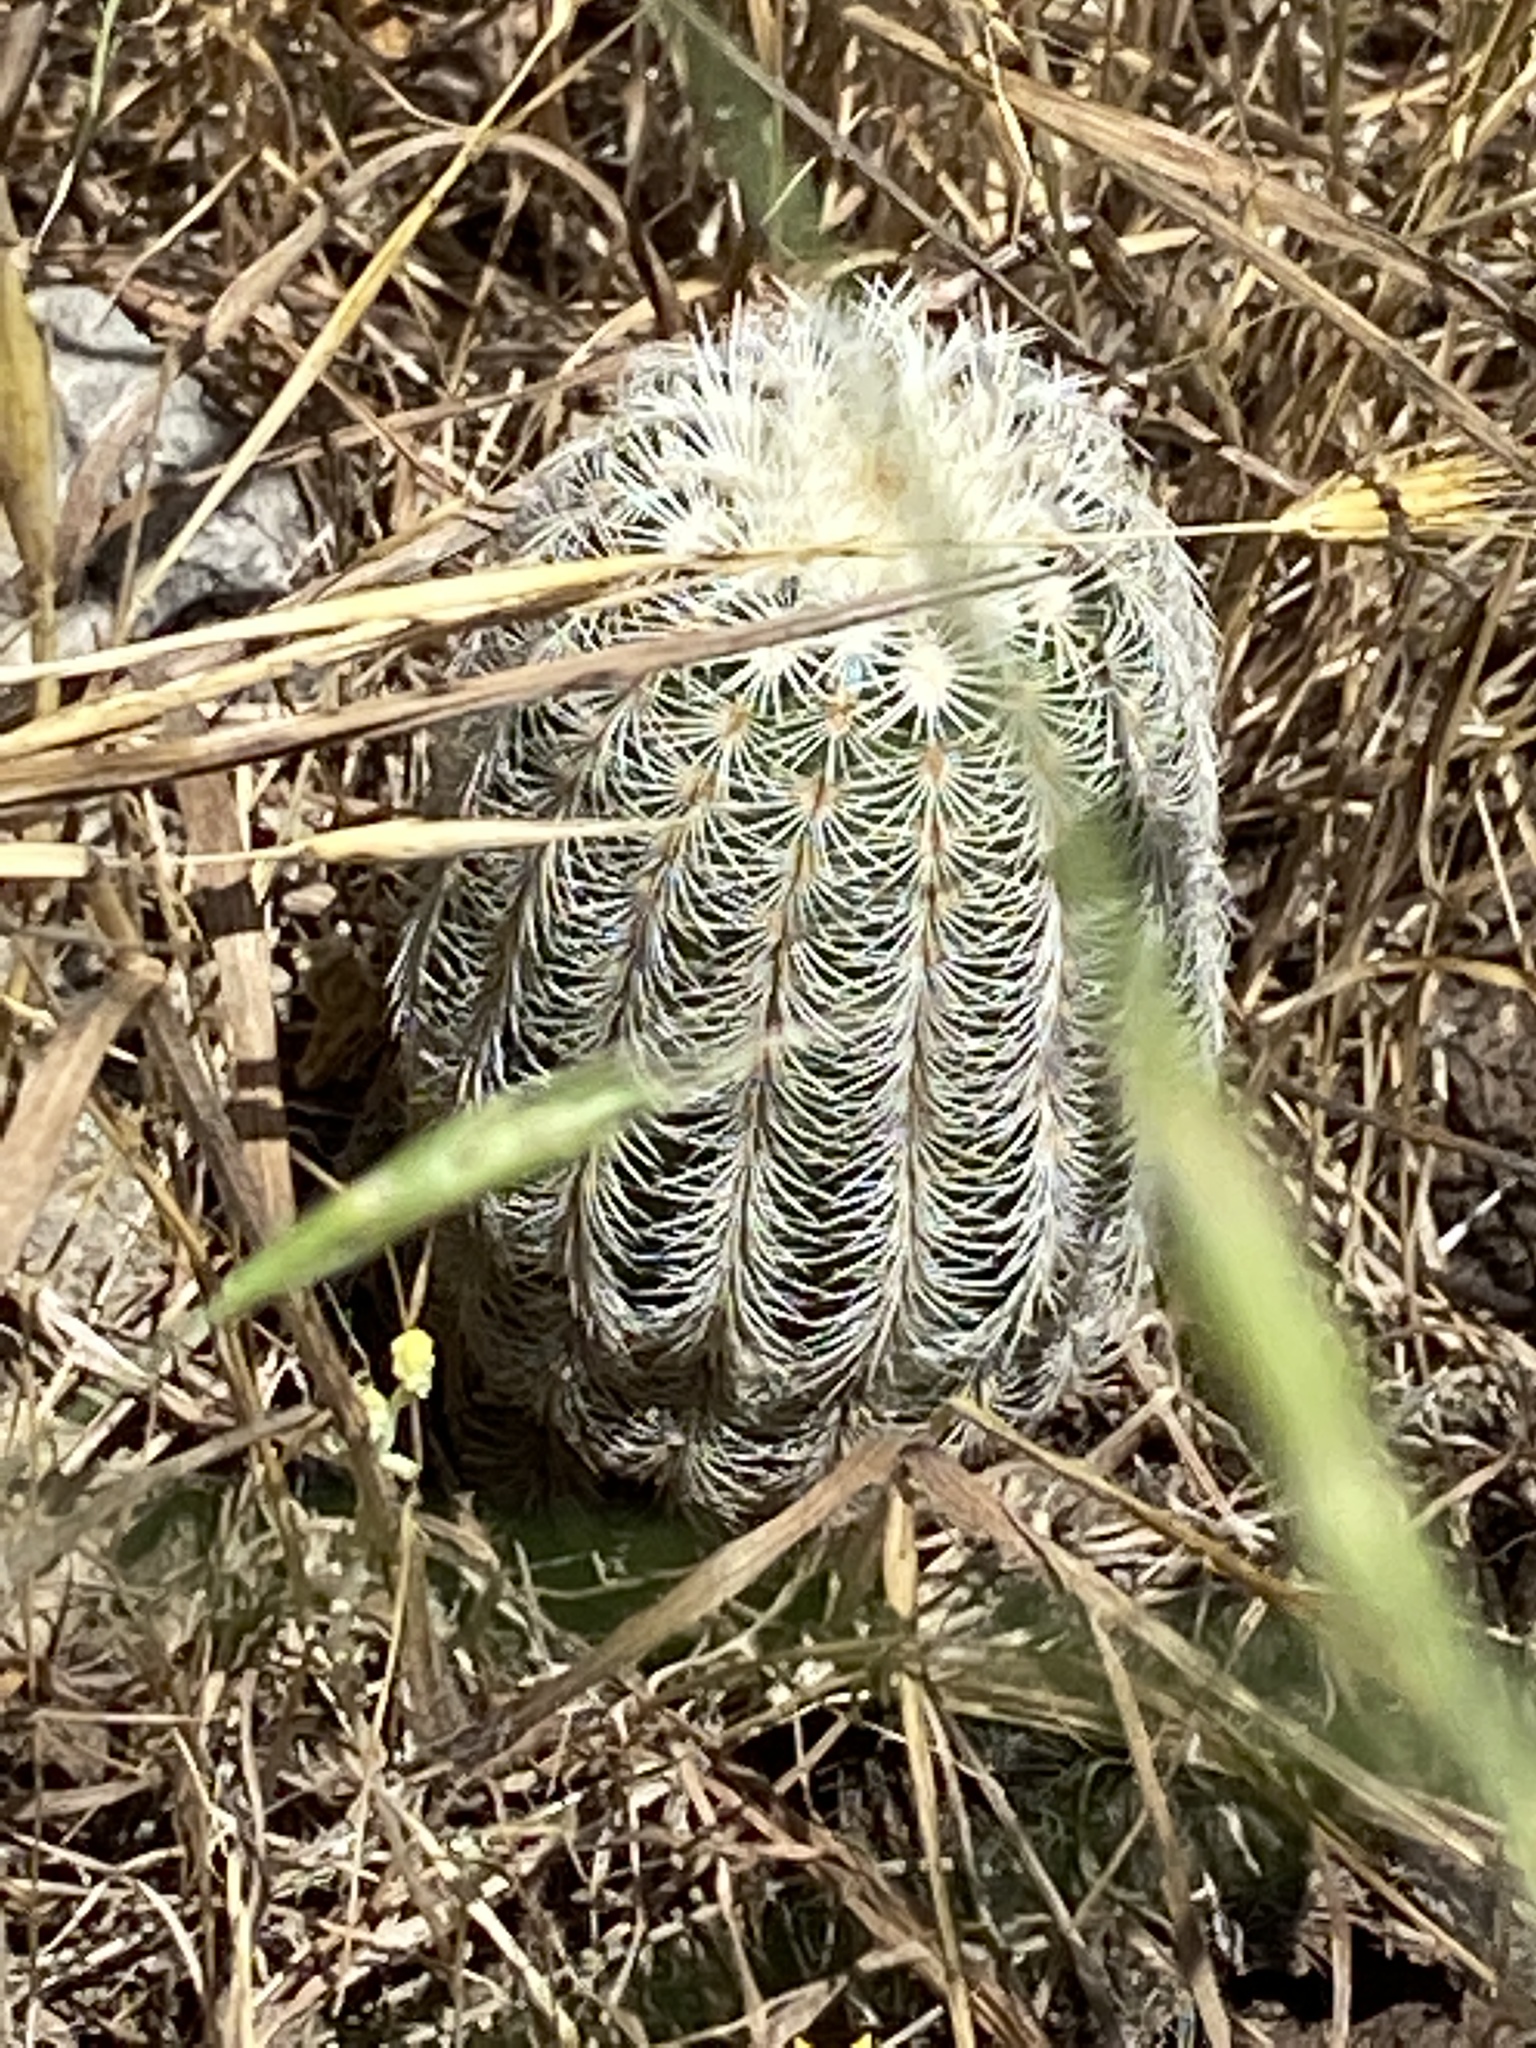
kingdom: Plantae
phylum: Tracheophyta
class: Magnoliopsida
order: Caryophyllales
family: Cactaceae
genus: Echinocereus
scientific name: Echinocereus reichenbachii
